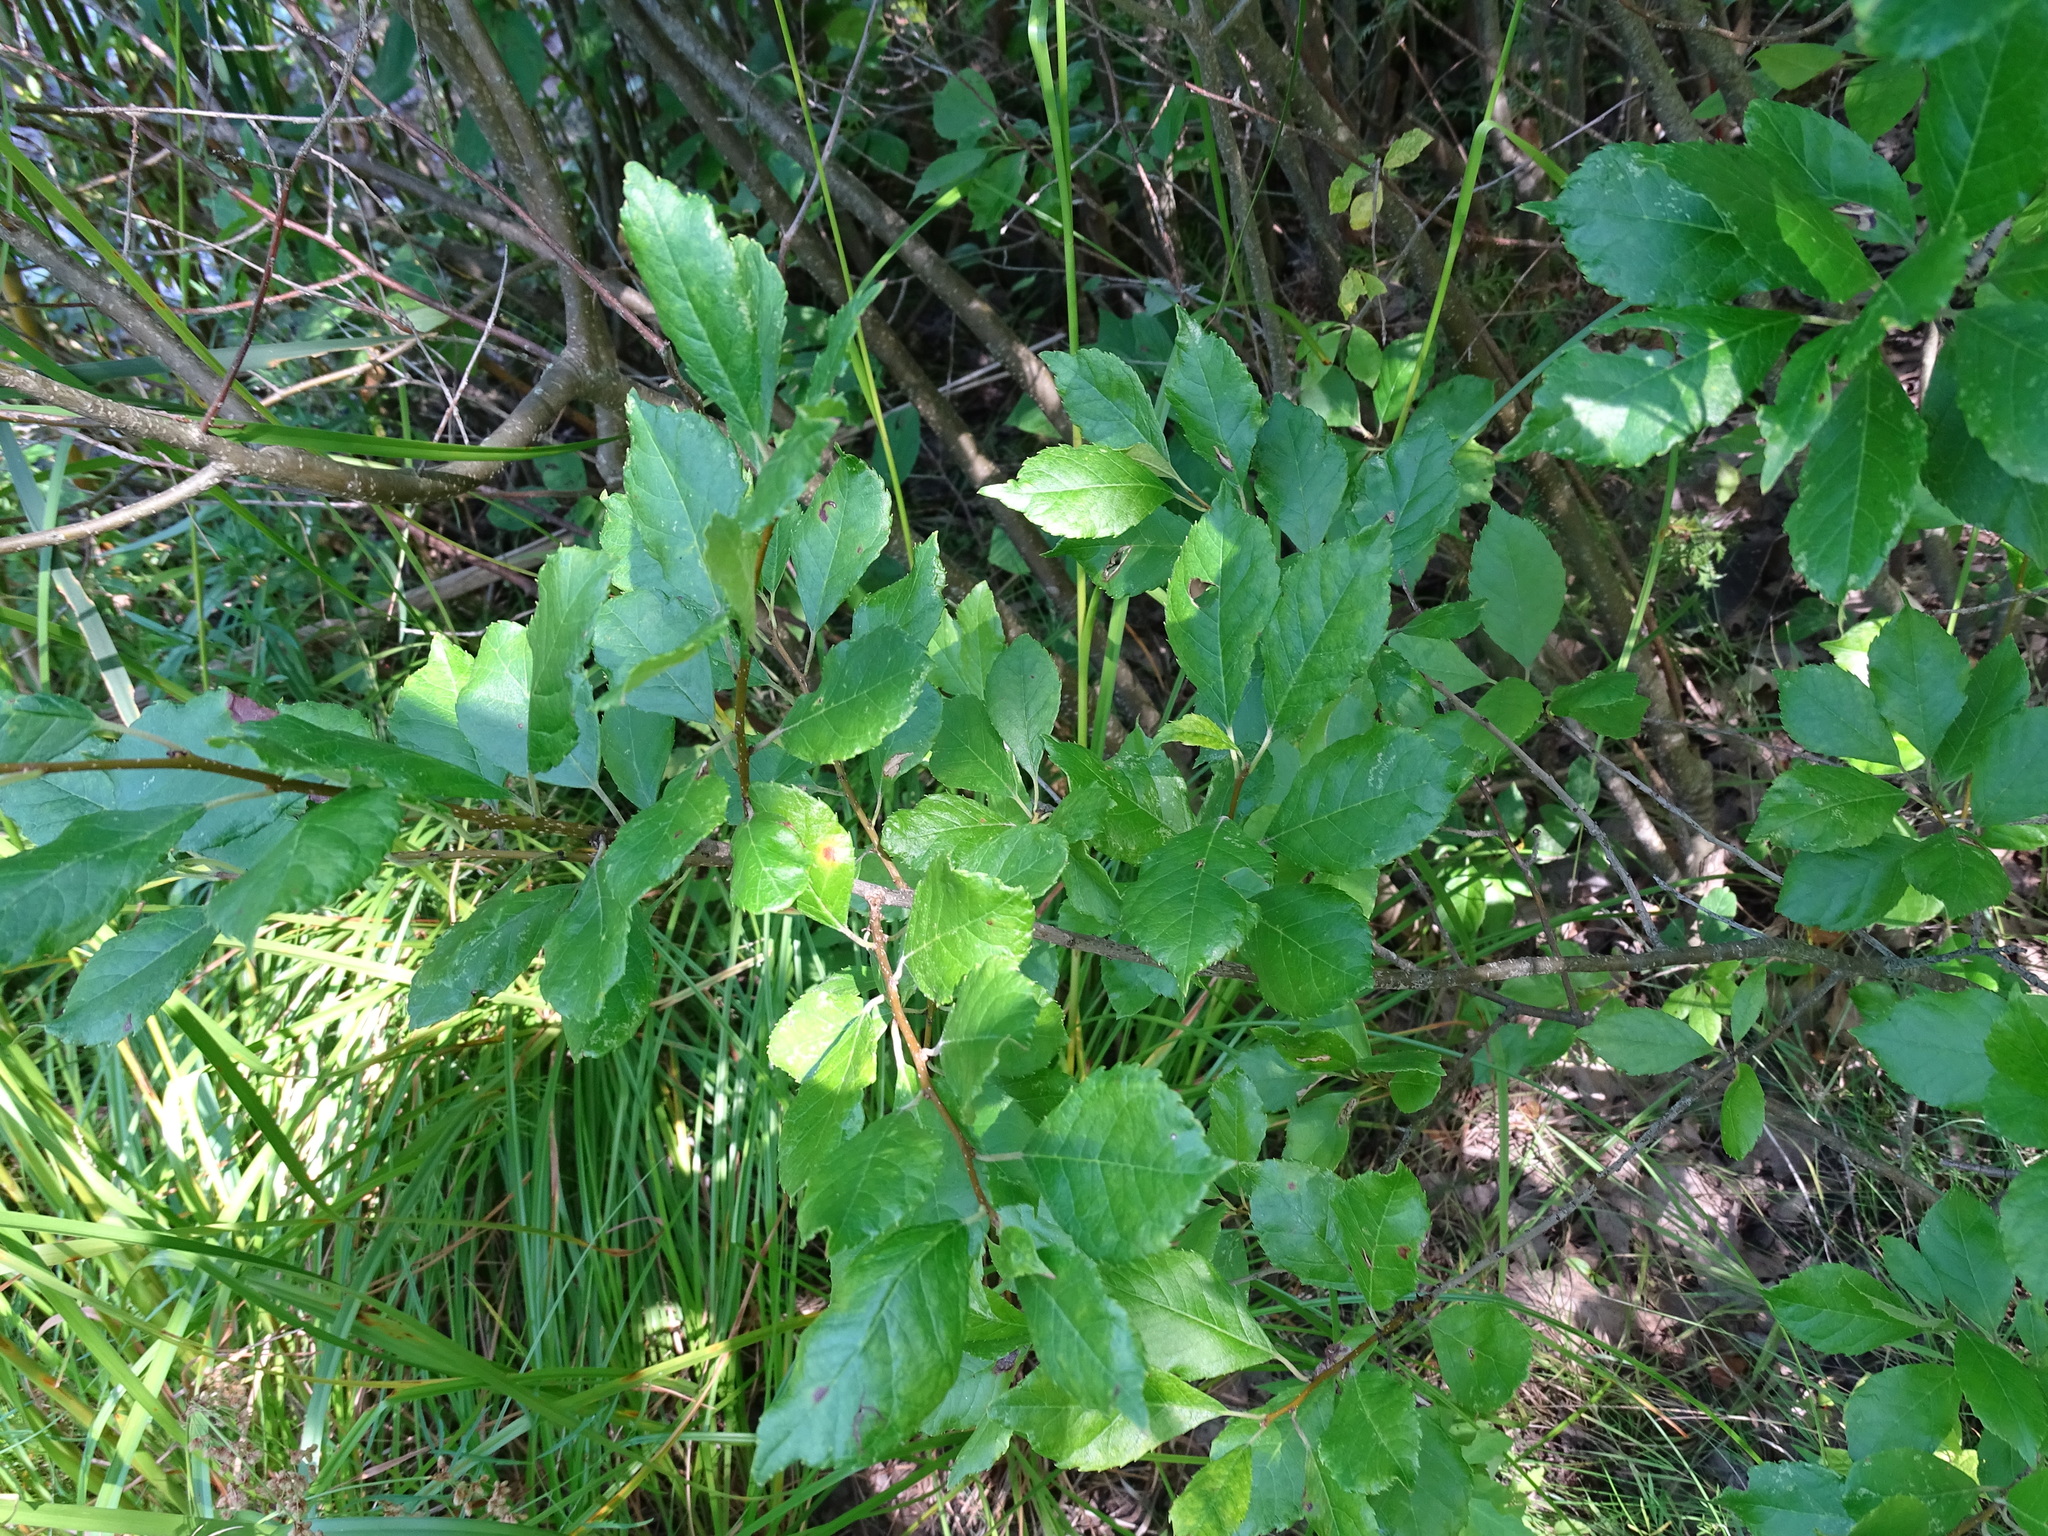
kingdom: Plantae
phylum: Tracheophyta
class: Magnoliopsida
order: Aquifoliales
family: Aquifoliaceae
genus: Ilex
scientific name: Ilex verticillata
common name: Virginia winterberry
